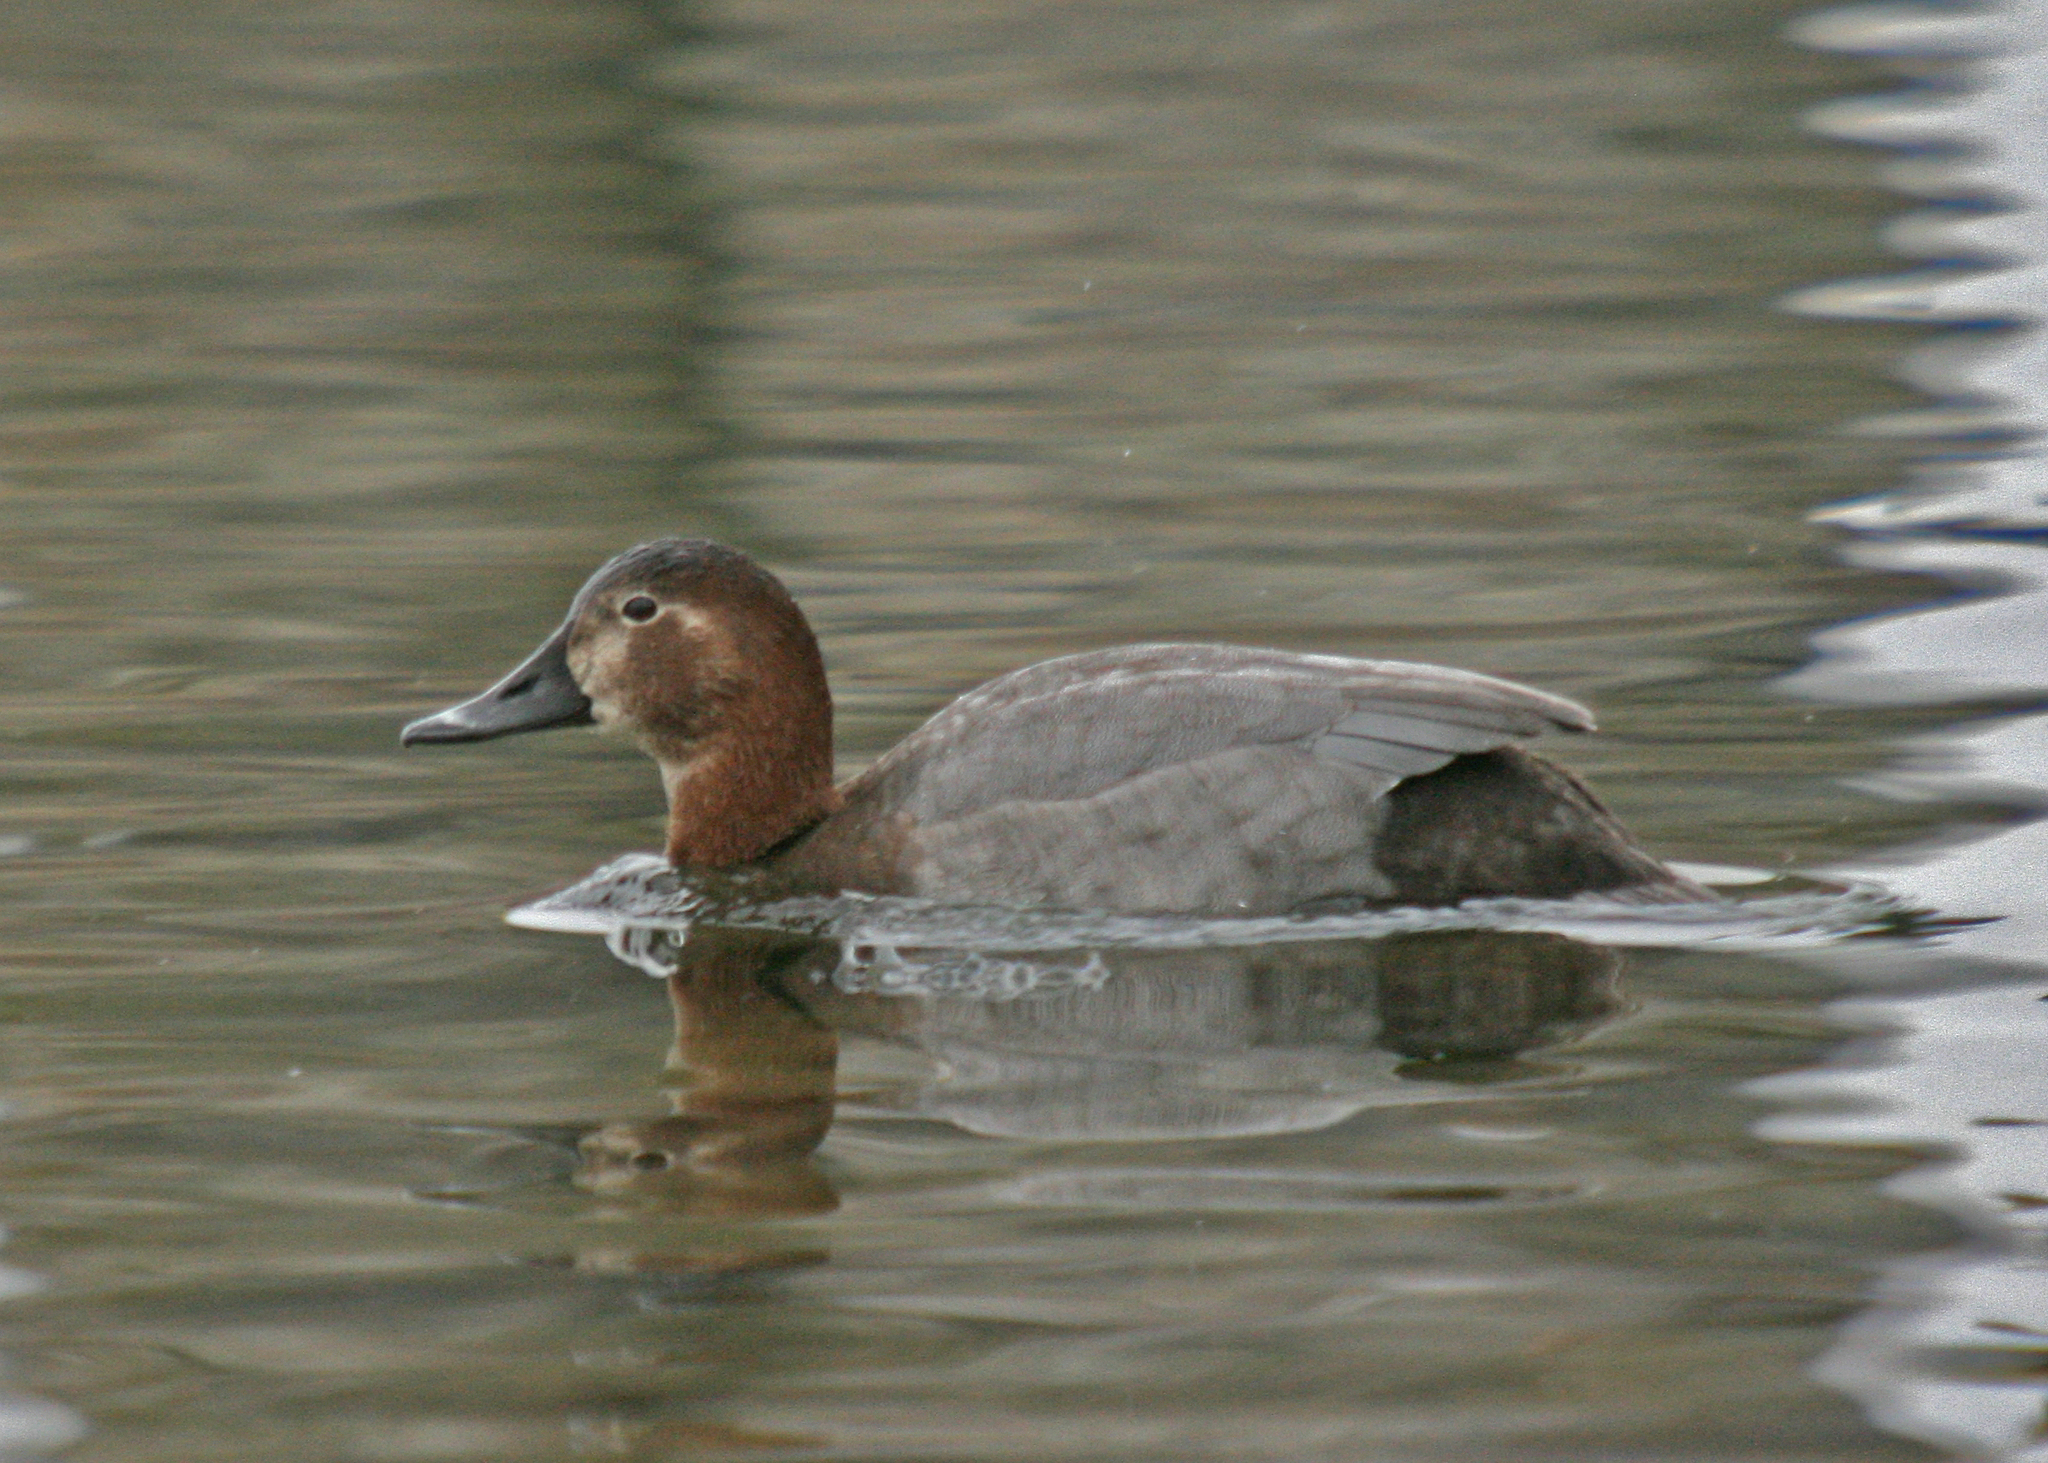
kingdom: Animalia
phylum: Chordata
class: Aves
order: Anseriformes
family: Anatidae
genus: Aythya
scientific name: Aythya ferina
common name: Common pochard
